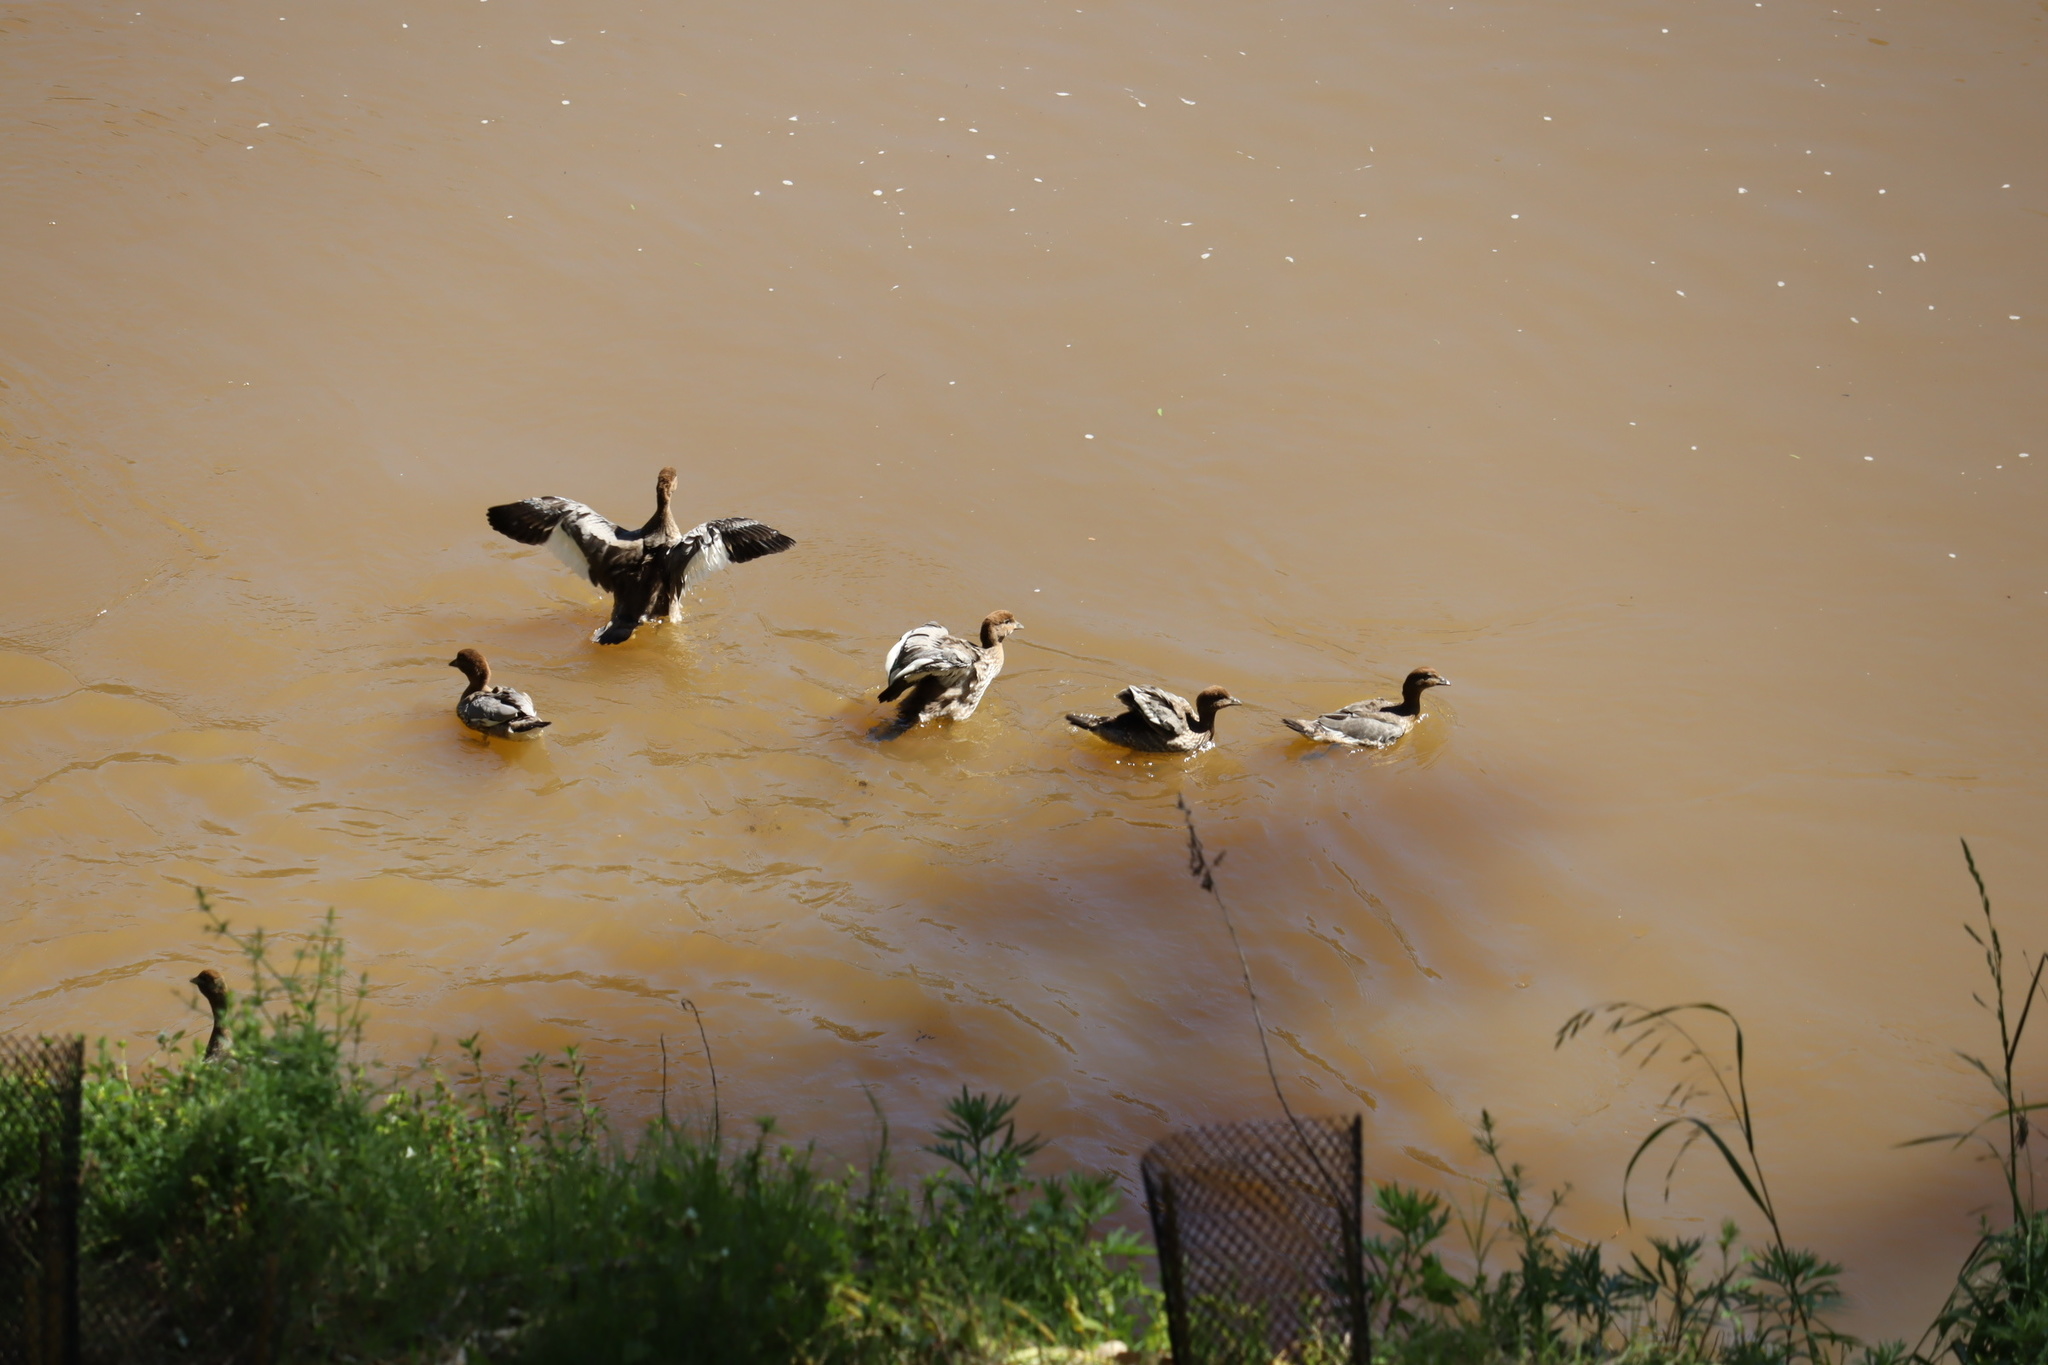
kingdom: Animalia
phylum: Chordata
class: Aves
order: Anseriformes
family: Anatidae
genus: Chenonetta
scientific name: Chenonetta jubata
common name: Maned duck
